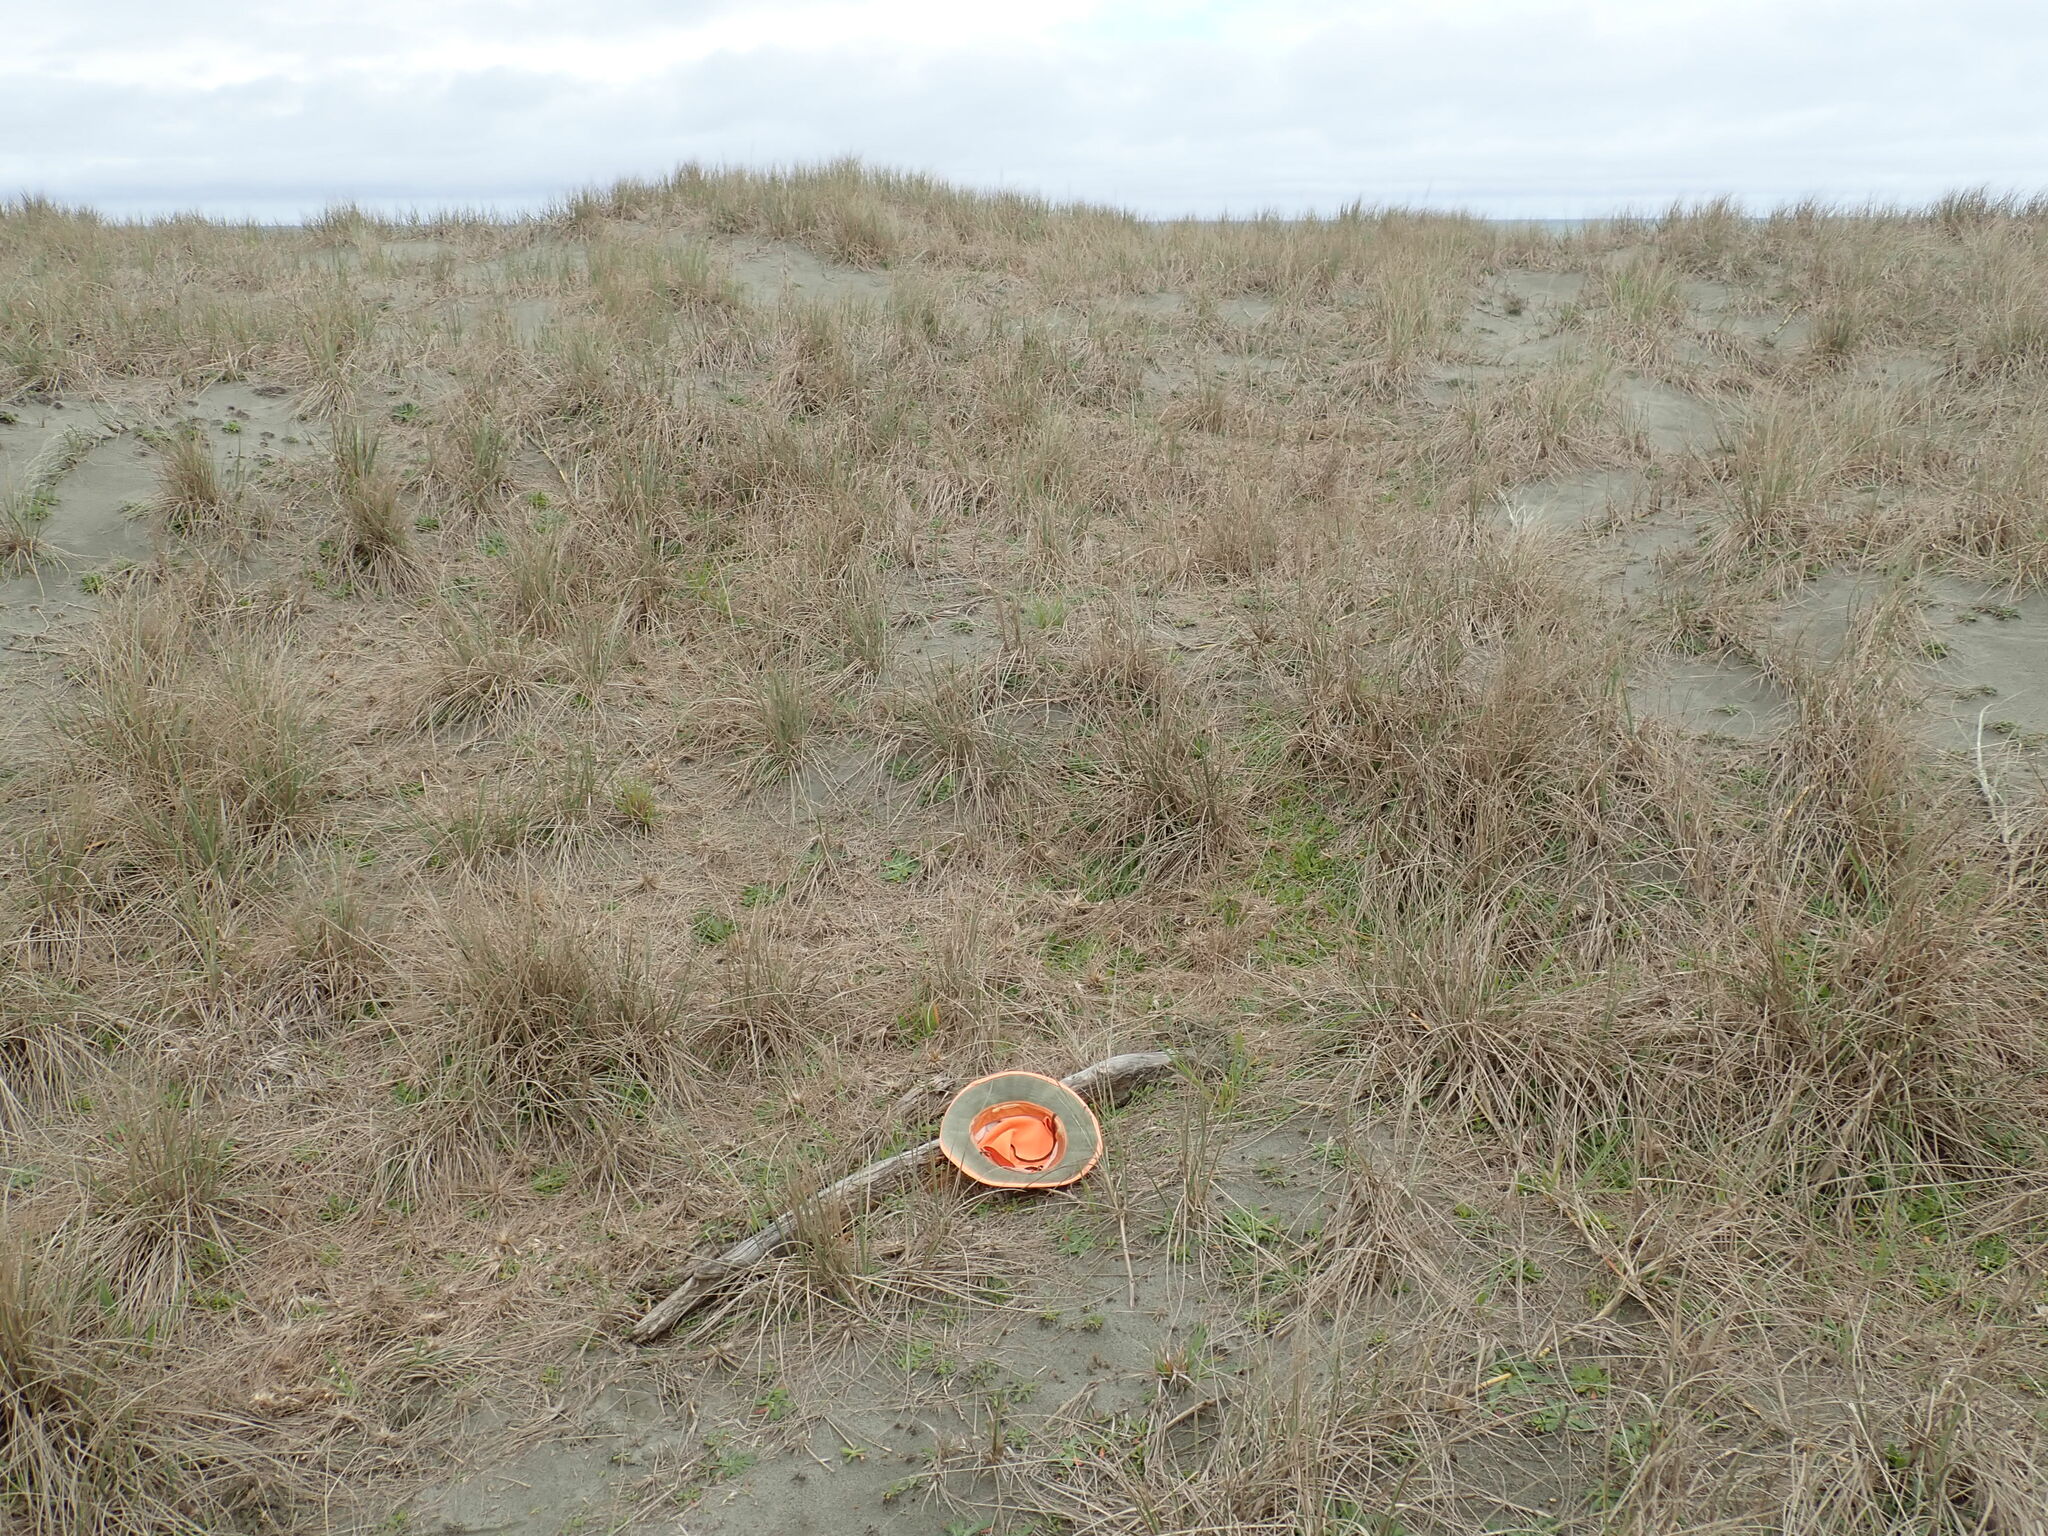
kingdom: Animalia
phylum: Arthropoda
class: Arachnida
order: Araneae
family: Dysderidae
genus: Dysdera
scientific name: Dysdera crocata
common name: Woodlouse spider
